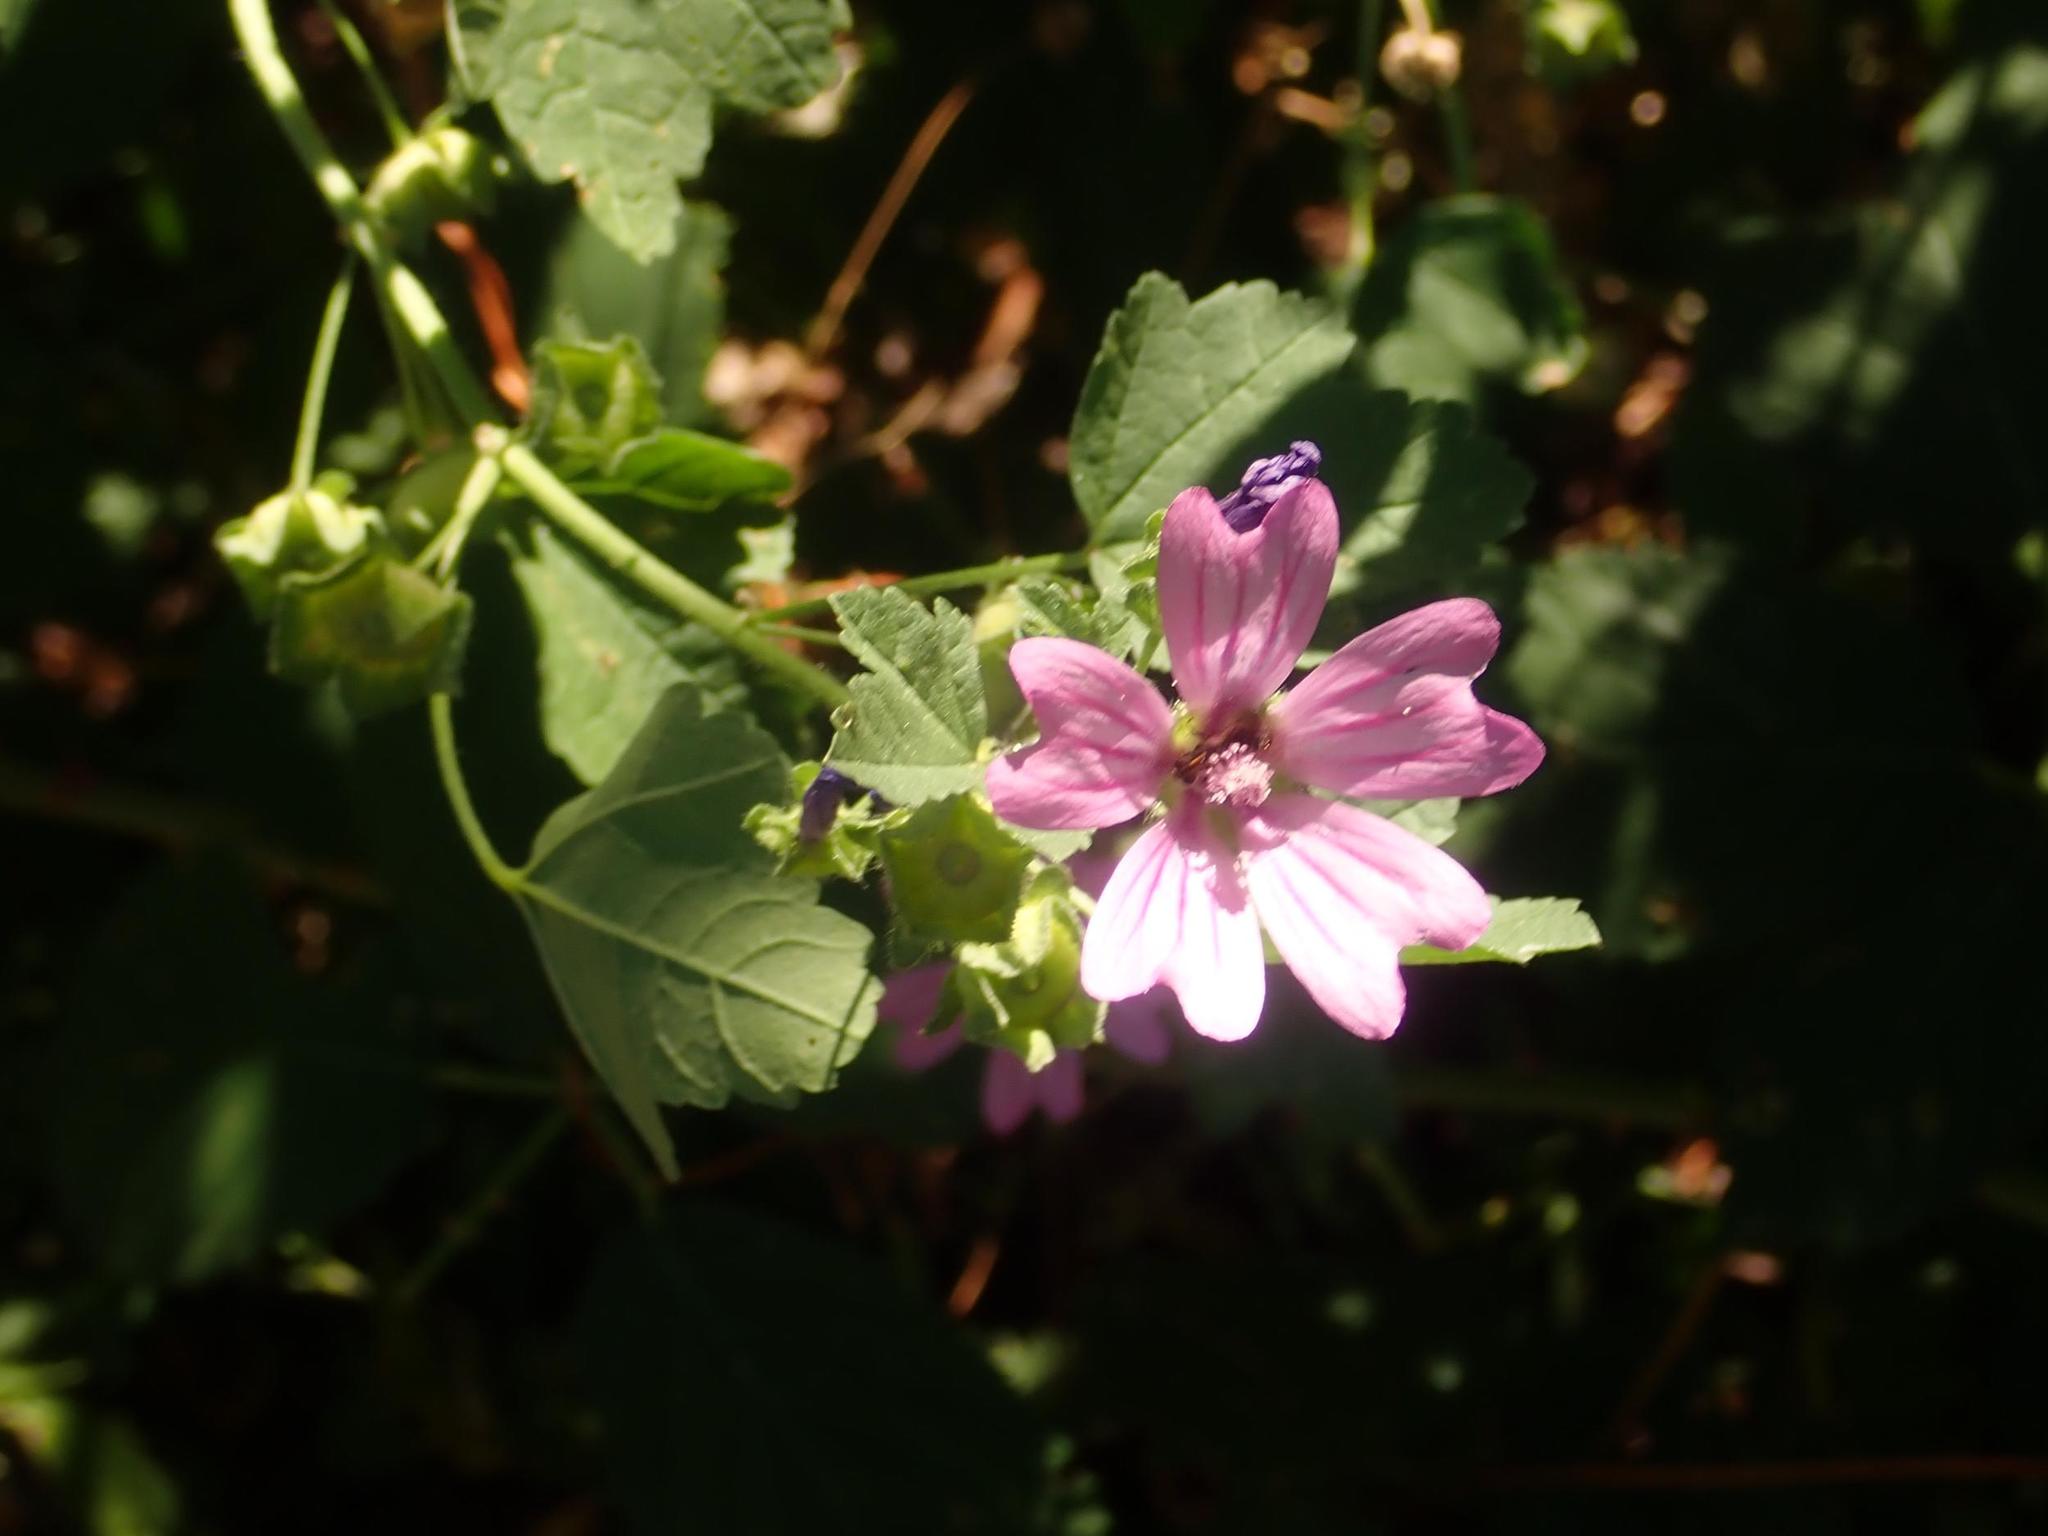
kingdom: Plantae
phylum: Tracheophyta
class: Magnoliopsida
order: Malvales
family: Malvaceae
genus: Malva
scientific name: Malva sylvestris
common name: Common mallow
